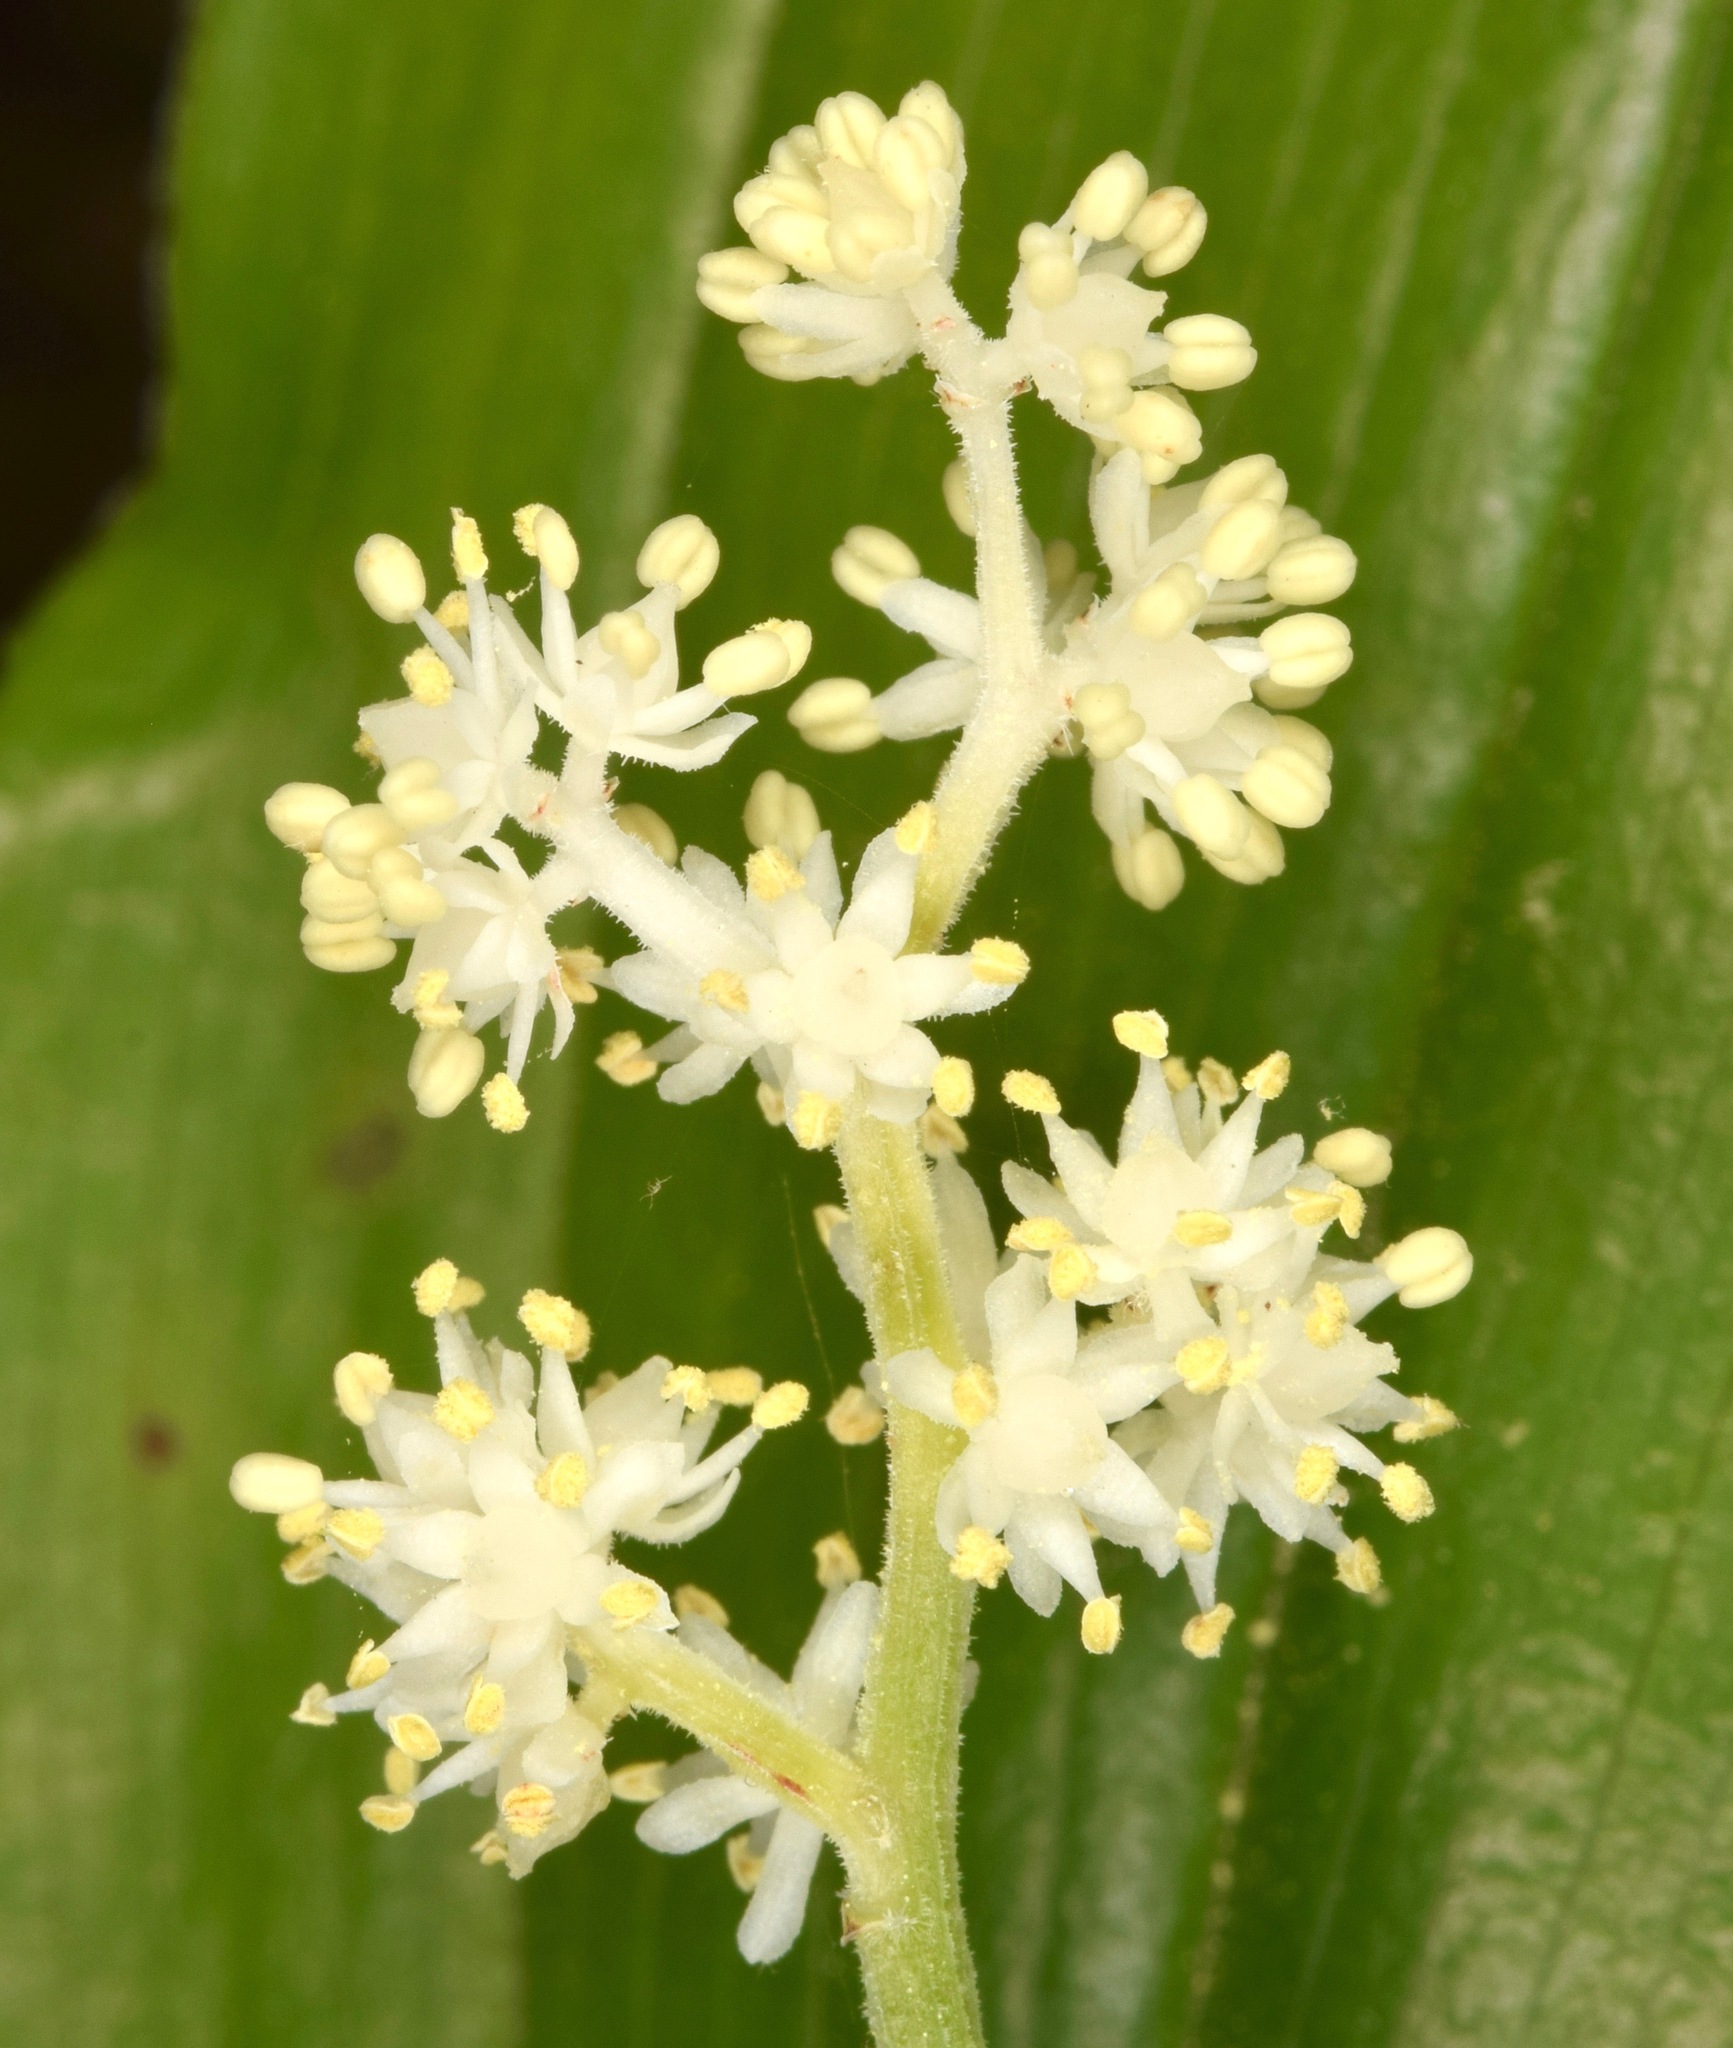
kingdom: Plantae
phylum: Tracheophyta
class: Liliopsida
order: Asparagales
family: Asparagaceae
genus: Maianthemum
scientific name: Maianthemum racemosum
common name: False spikenard
